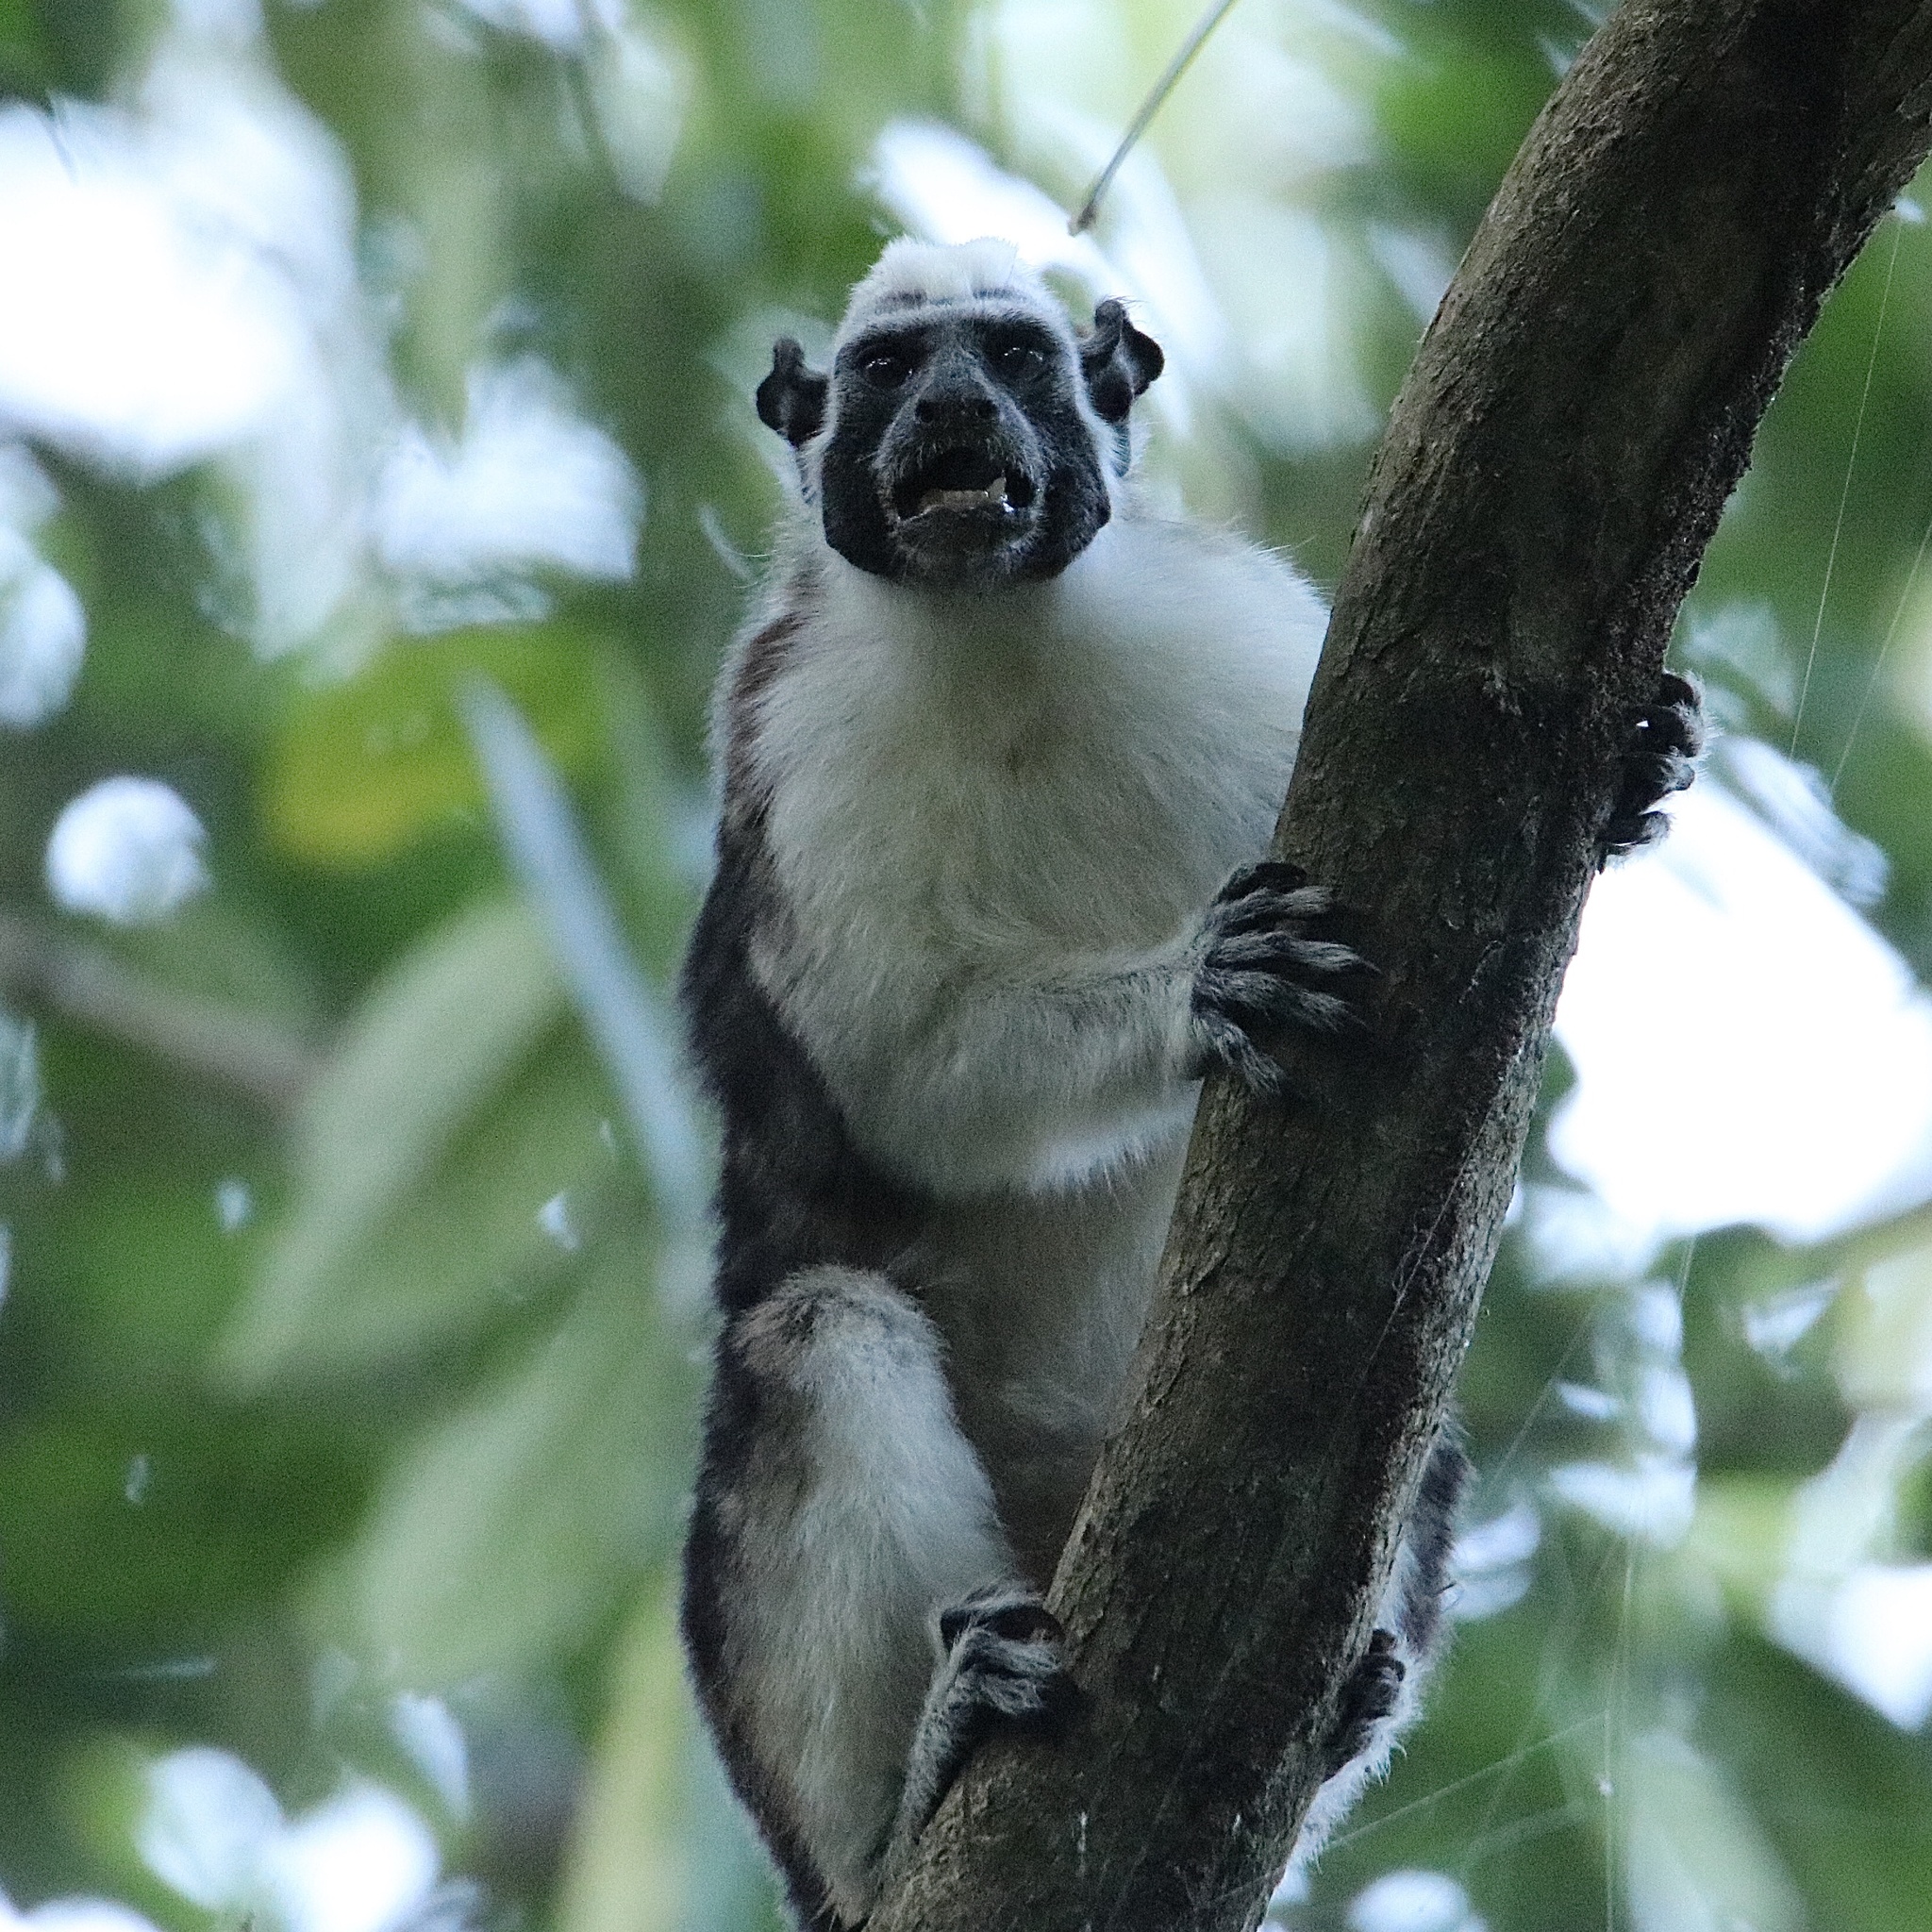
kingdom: Animalia
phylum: Chordata
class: Mammalia
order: Primates
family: Callitrichidae
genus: Saguinus
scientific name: Saguinus geoffroyi
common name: Geoffroy s tamarin
